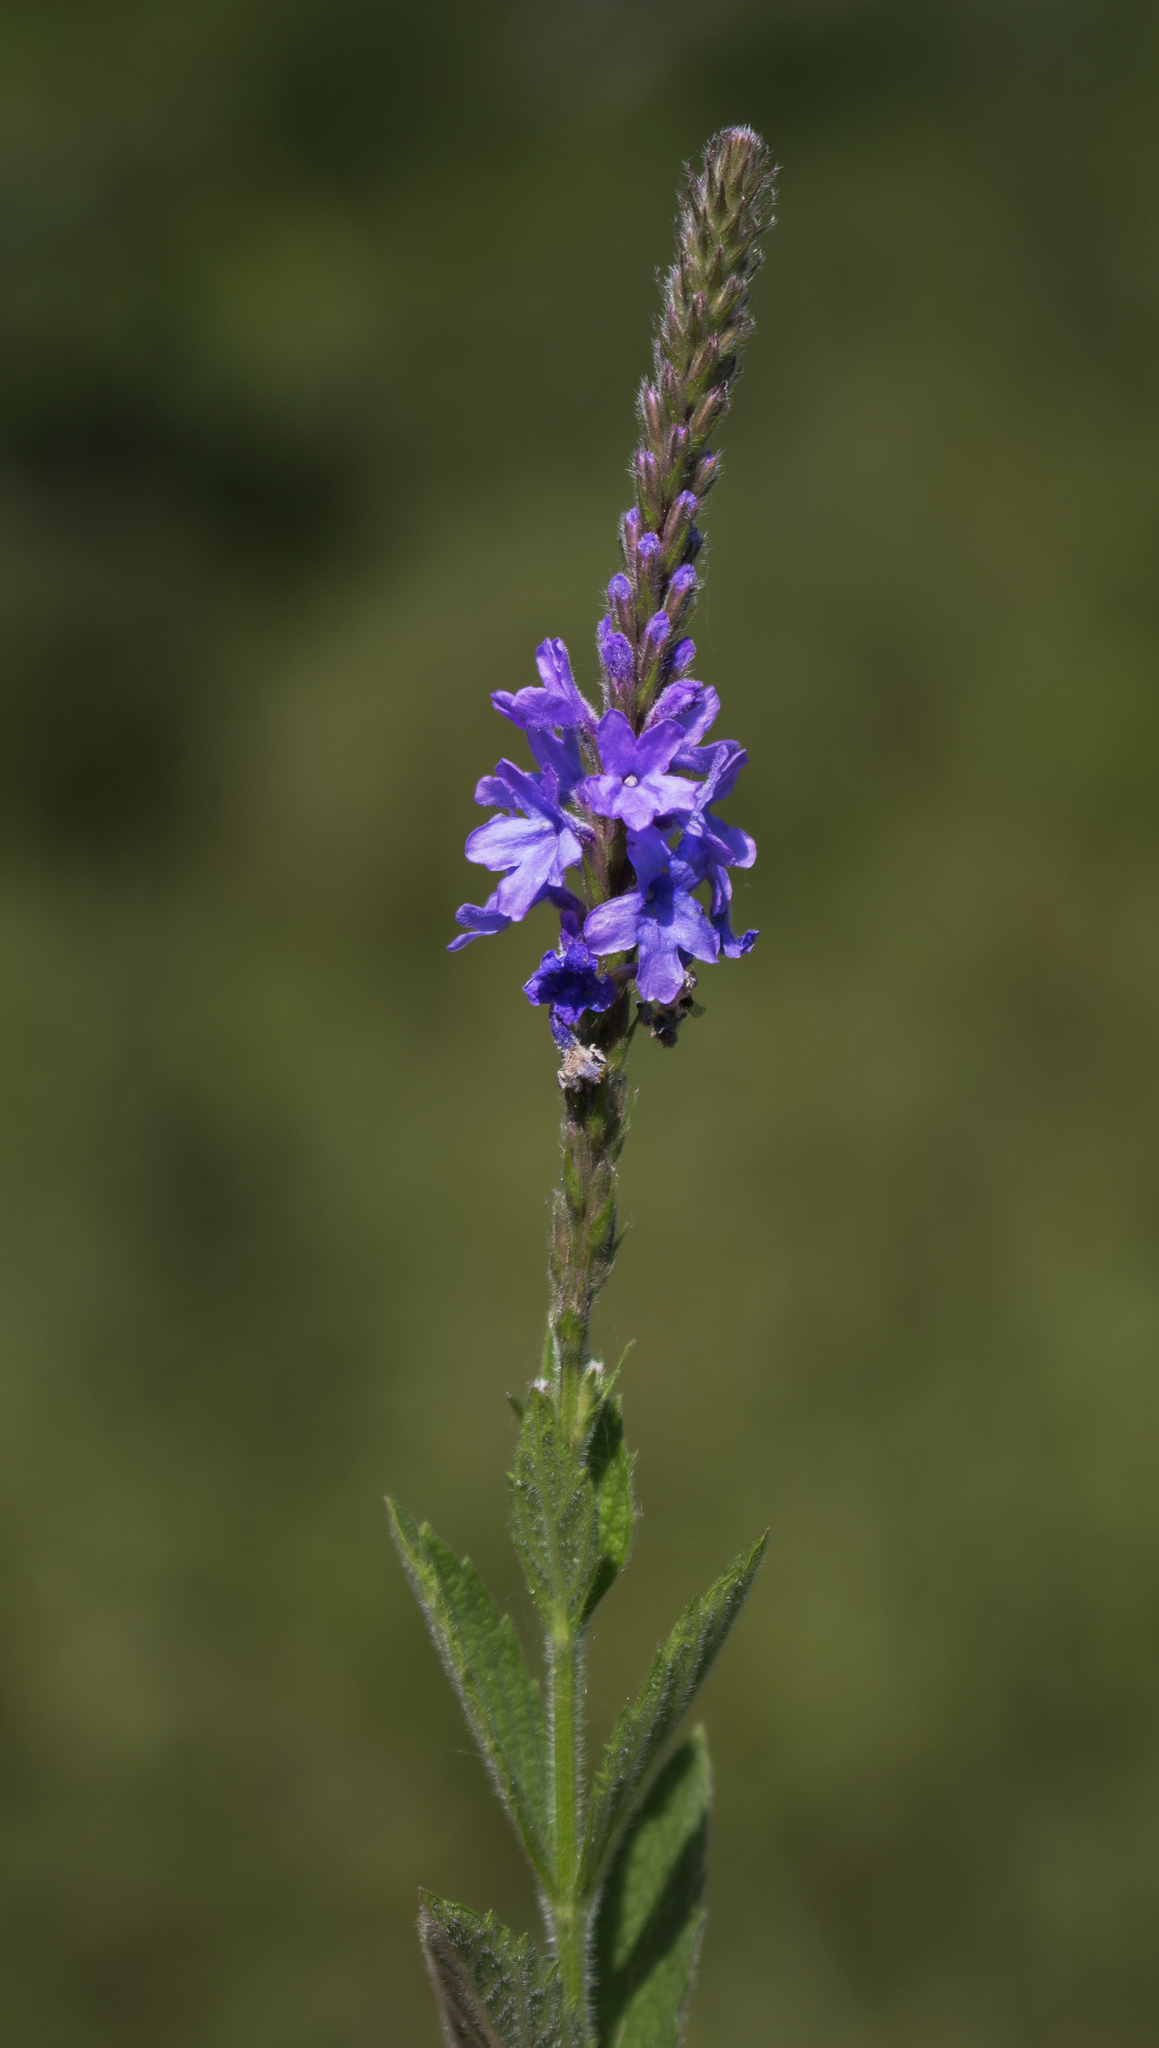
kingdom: Plantae
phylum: Tracheophyta
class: Magnoliopsida
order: Lamiales
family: Verbenaceae
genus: Verbena
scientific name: Verbena stricta
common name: Hoary vervain
